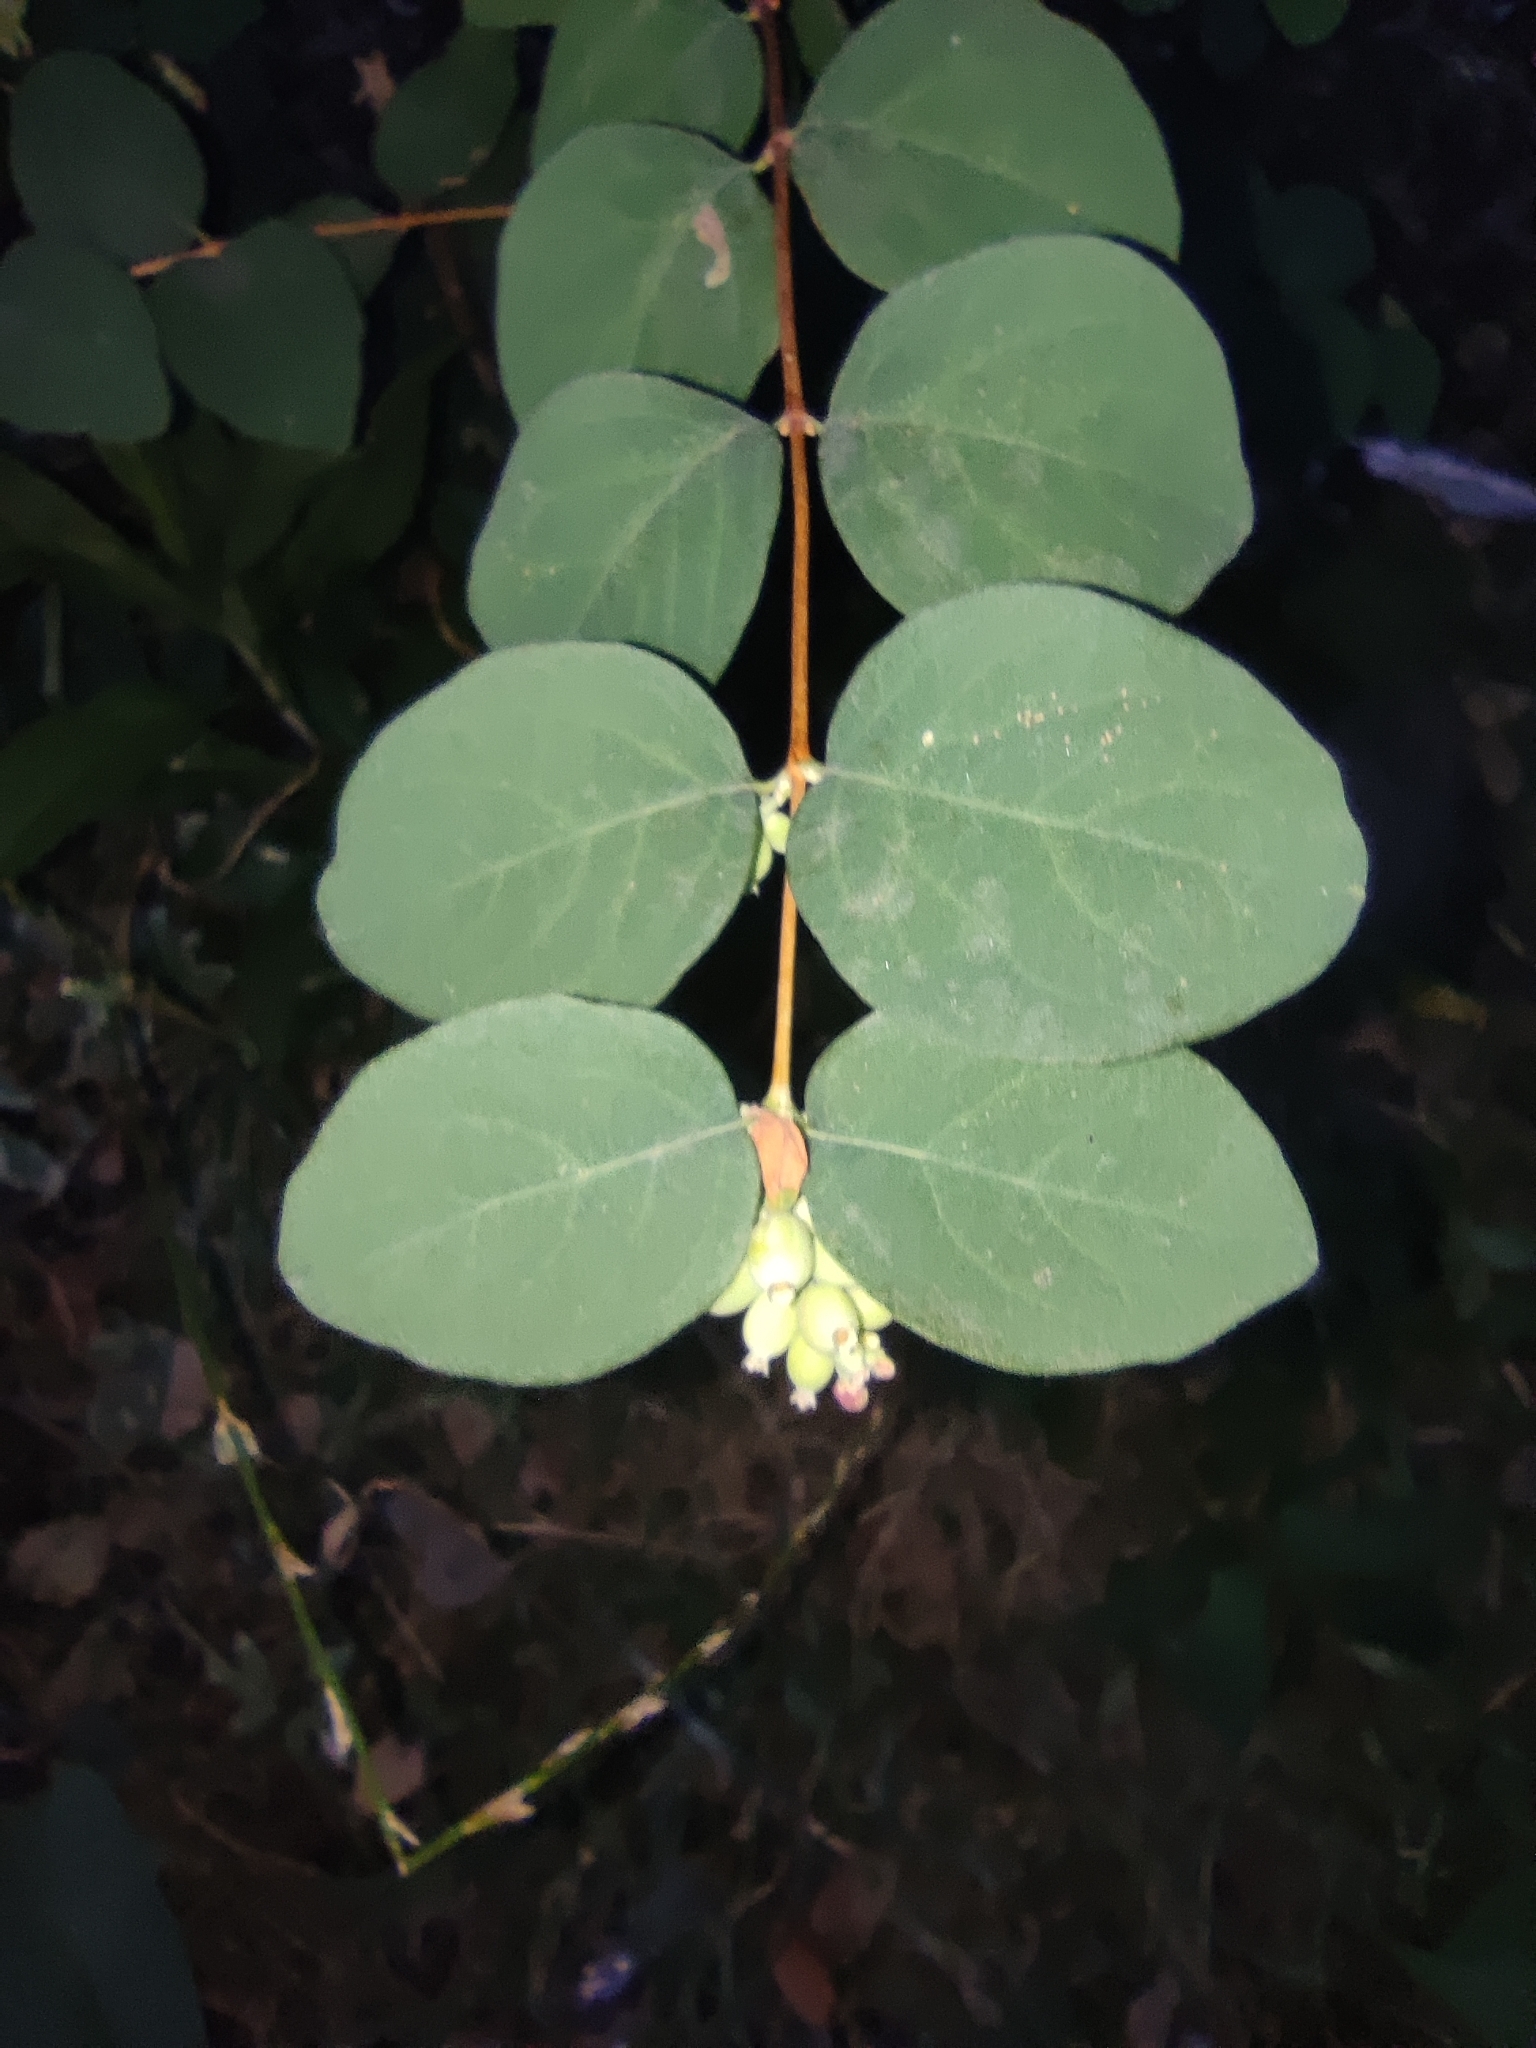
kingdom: Plantae
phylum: Tracheophyta
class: Magnoliopsida
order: Dipsacales
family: Caprifoliaceae
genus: Symphoricarpos
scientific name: Symphoricarpos albus
